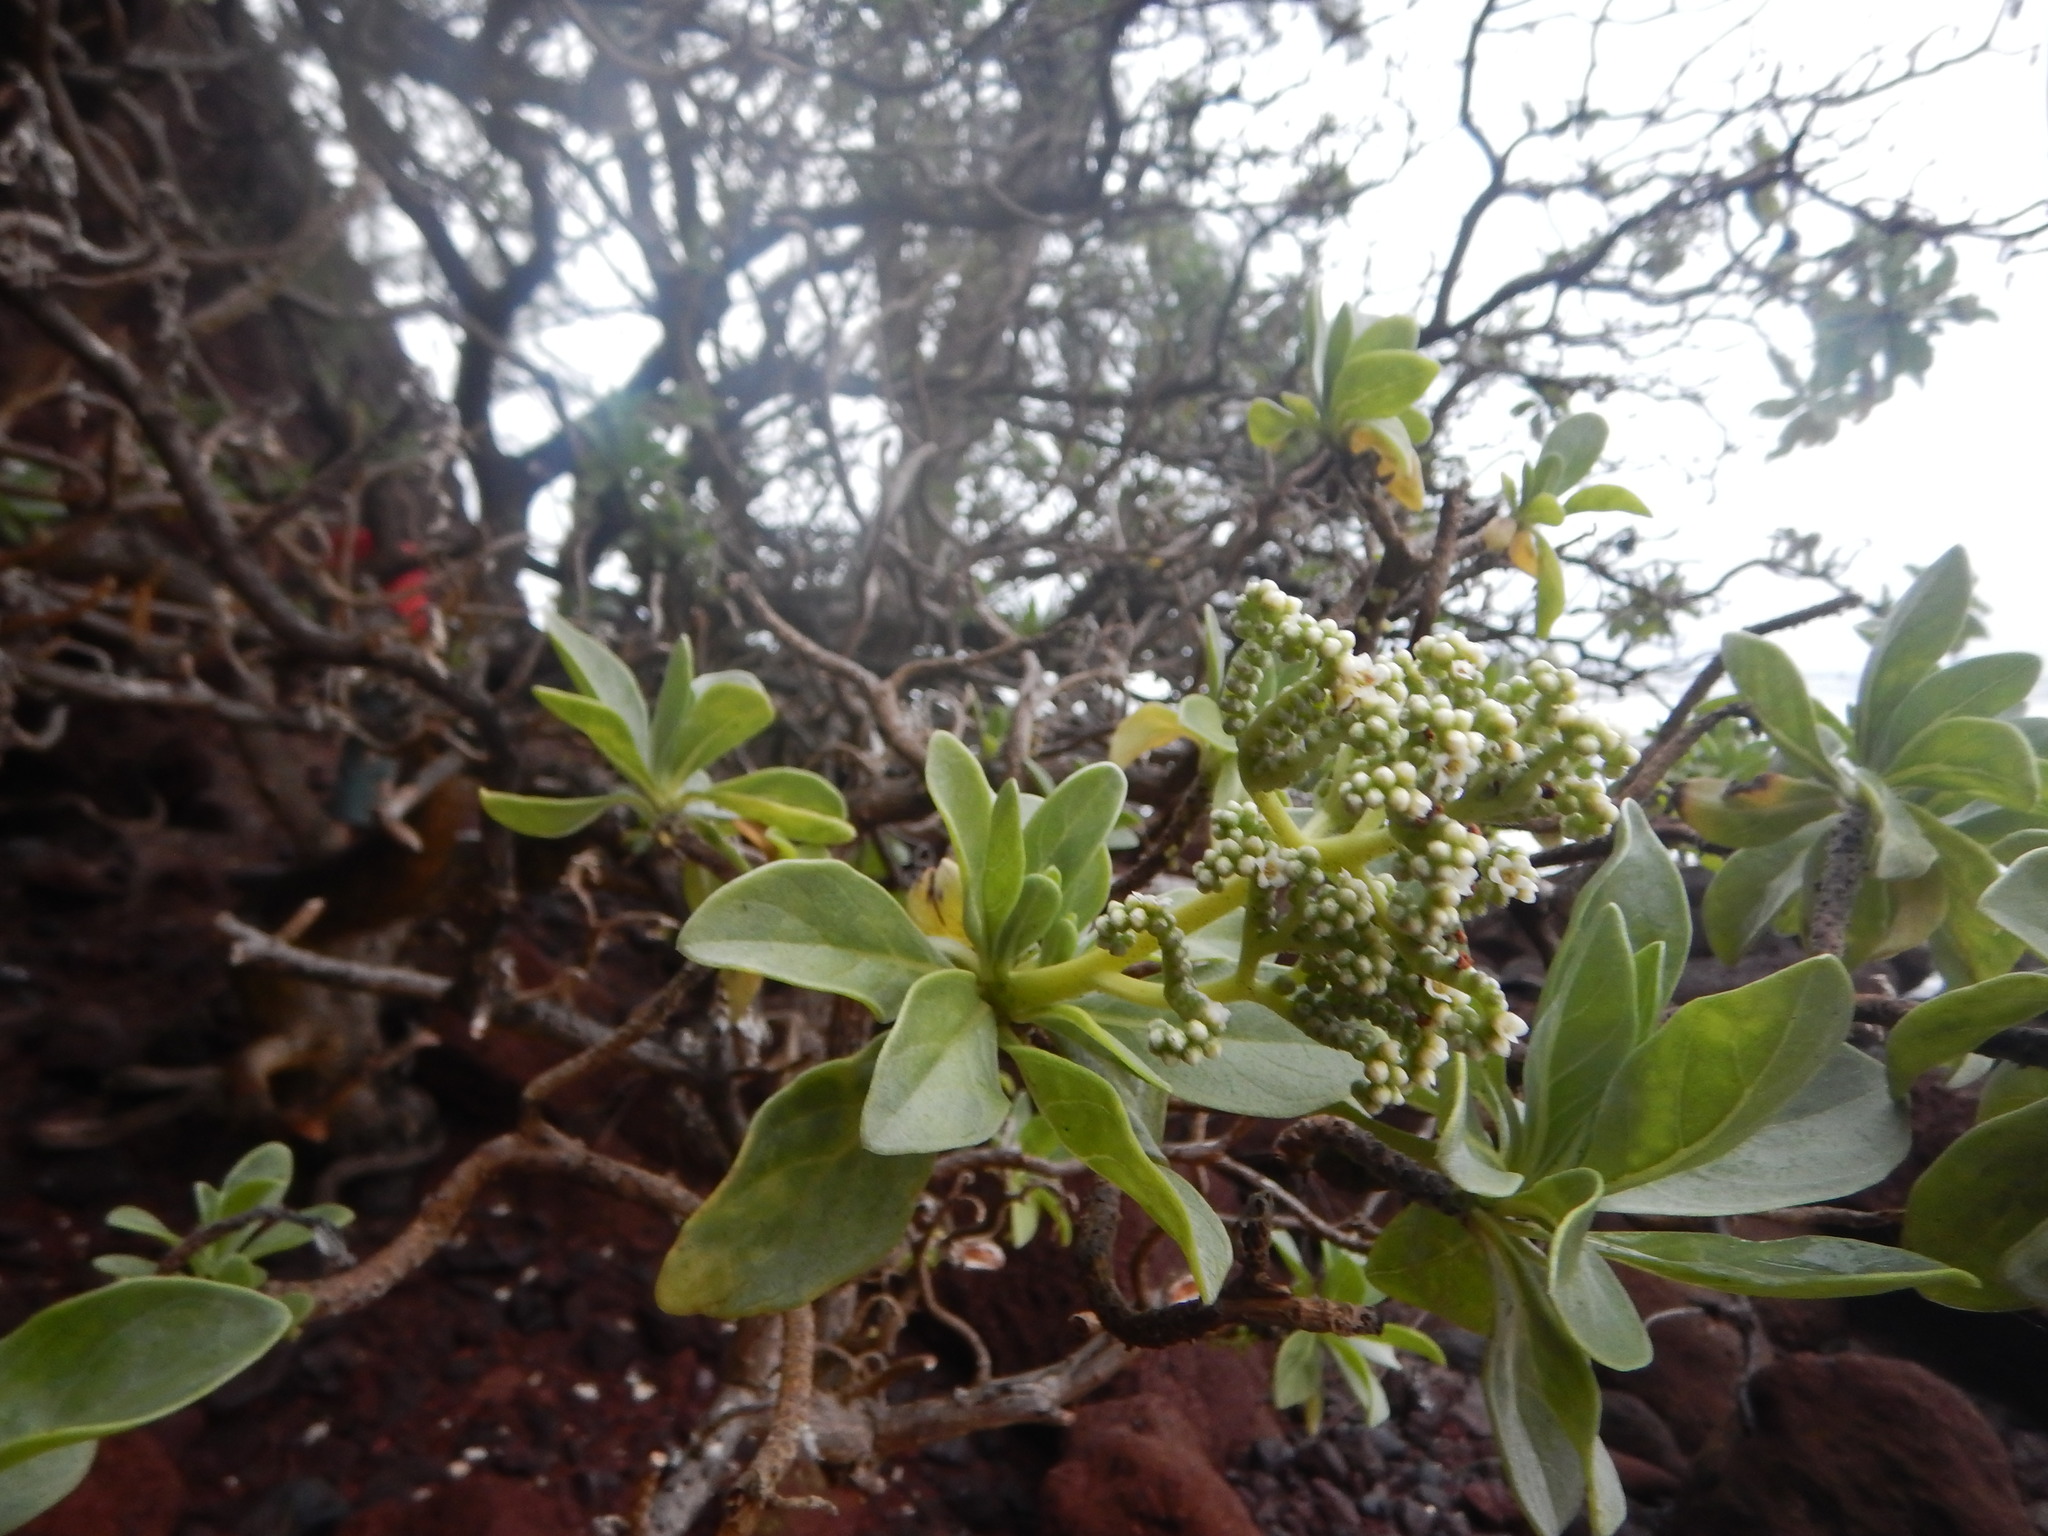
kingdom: Plantae
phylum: Tracheophyta
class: Magnoliopsida
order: Boraginales
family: Heliotropiaceae
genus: Heliotropium
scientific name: Heliotropium velutinum
